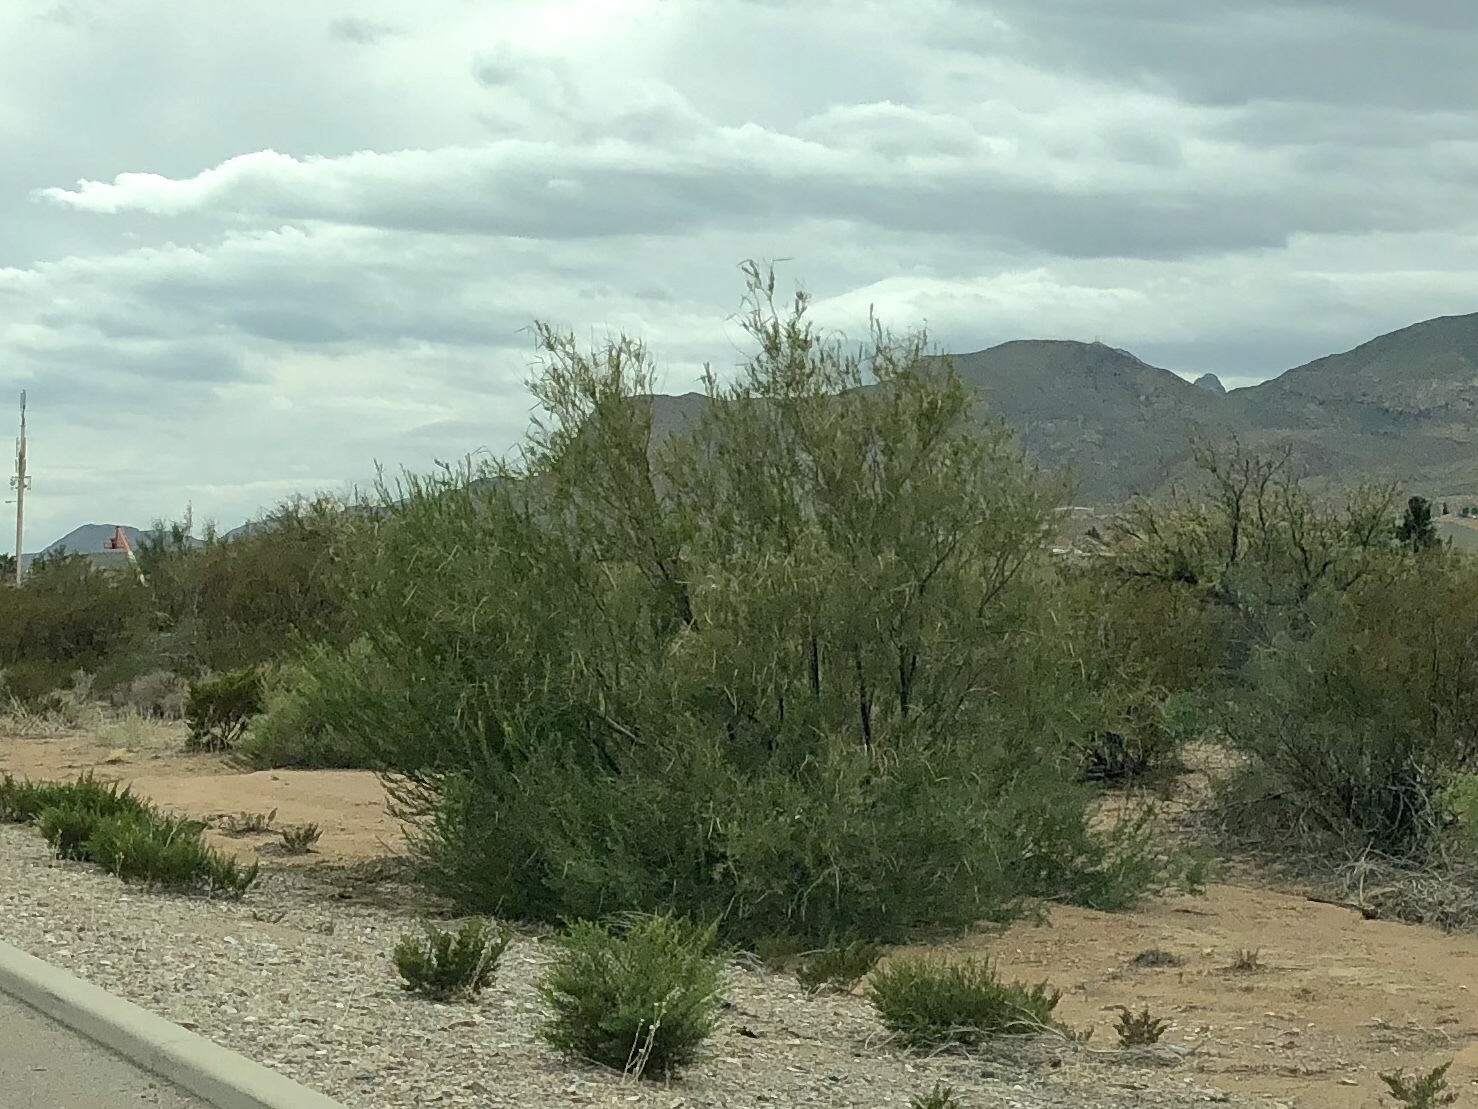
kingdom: Plantae
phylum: Tracheophyta
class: Magnoliopsida
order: Lamiales
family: Bignoniaceae
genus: Chilopsis
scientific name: Chilopsis linearis
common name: Desert-willow
